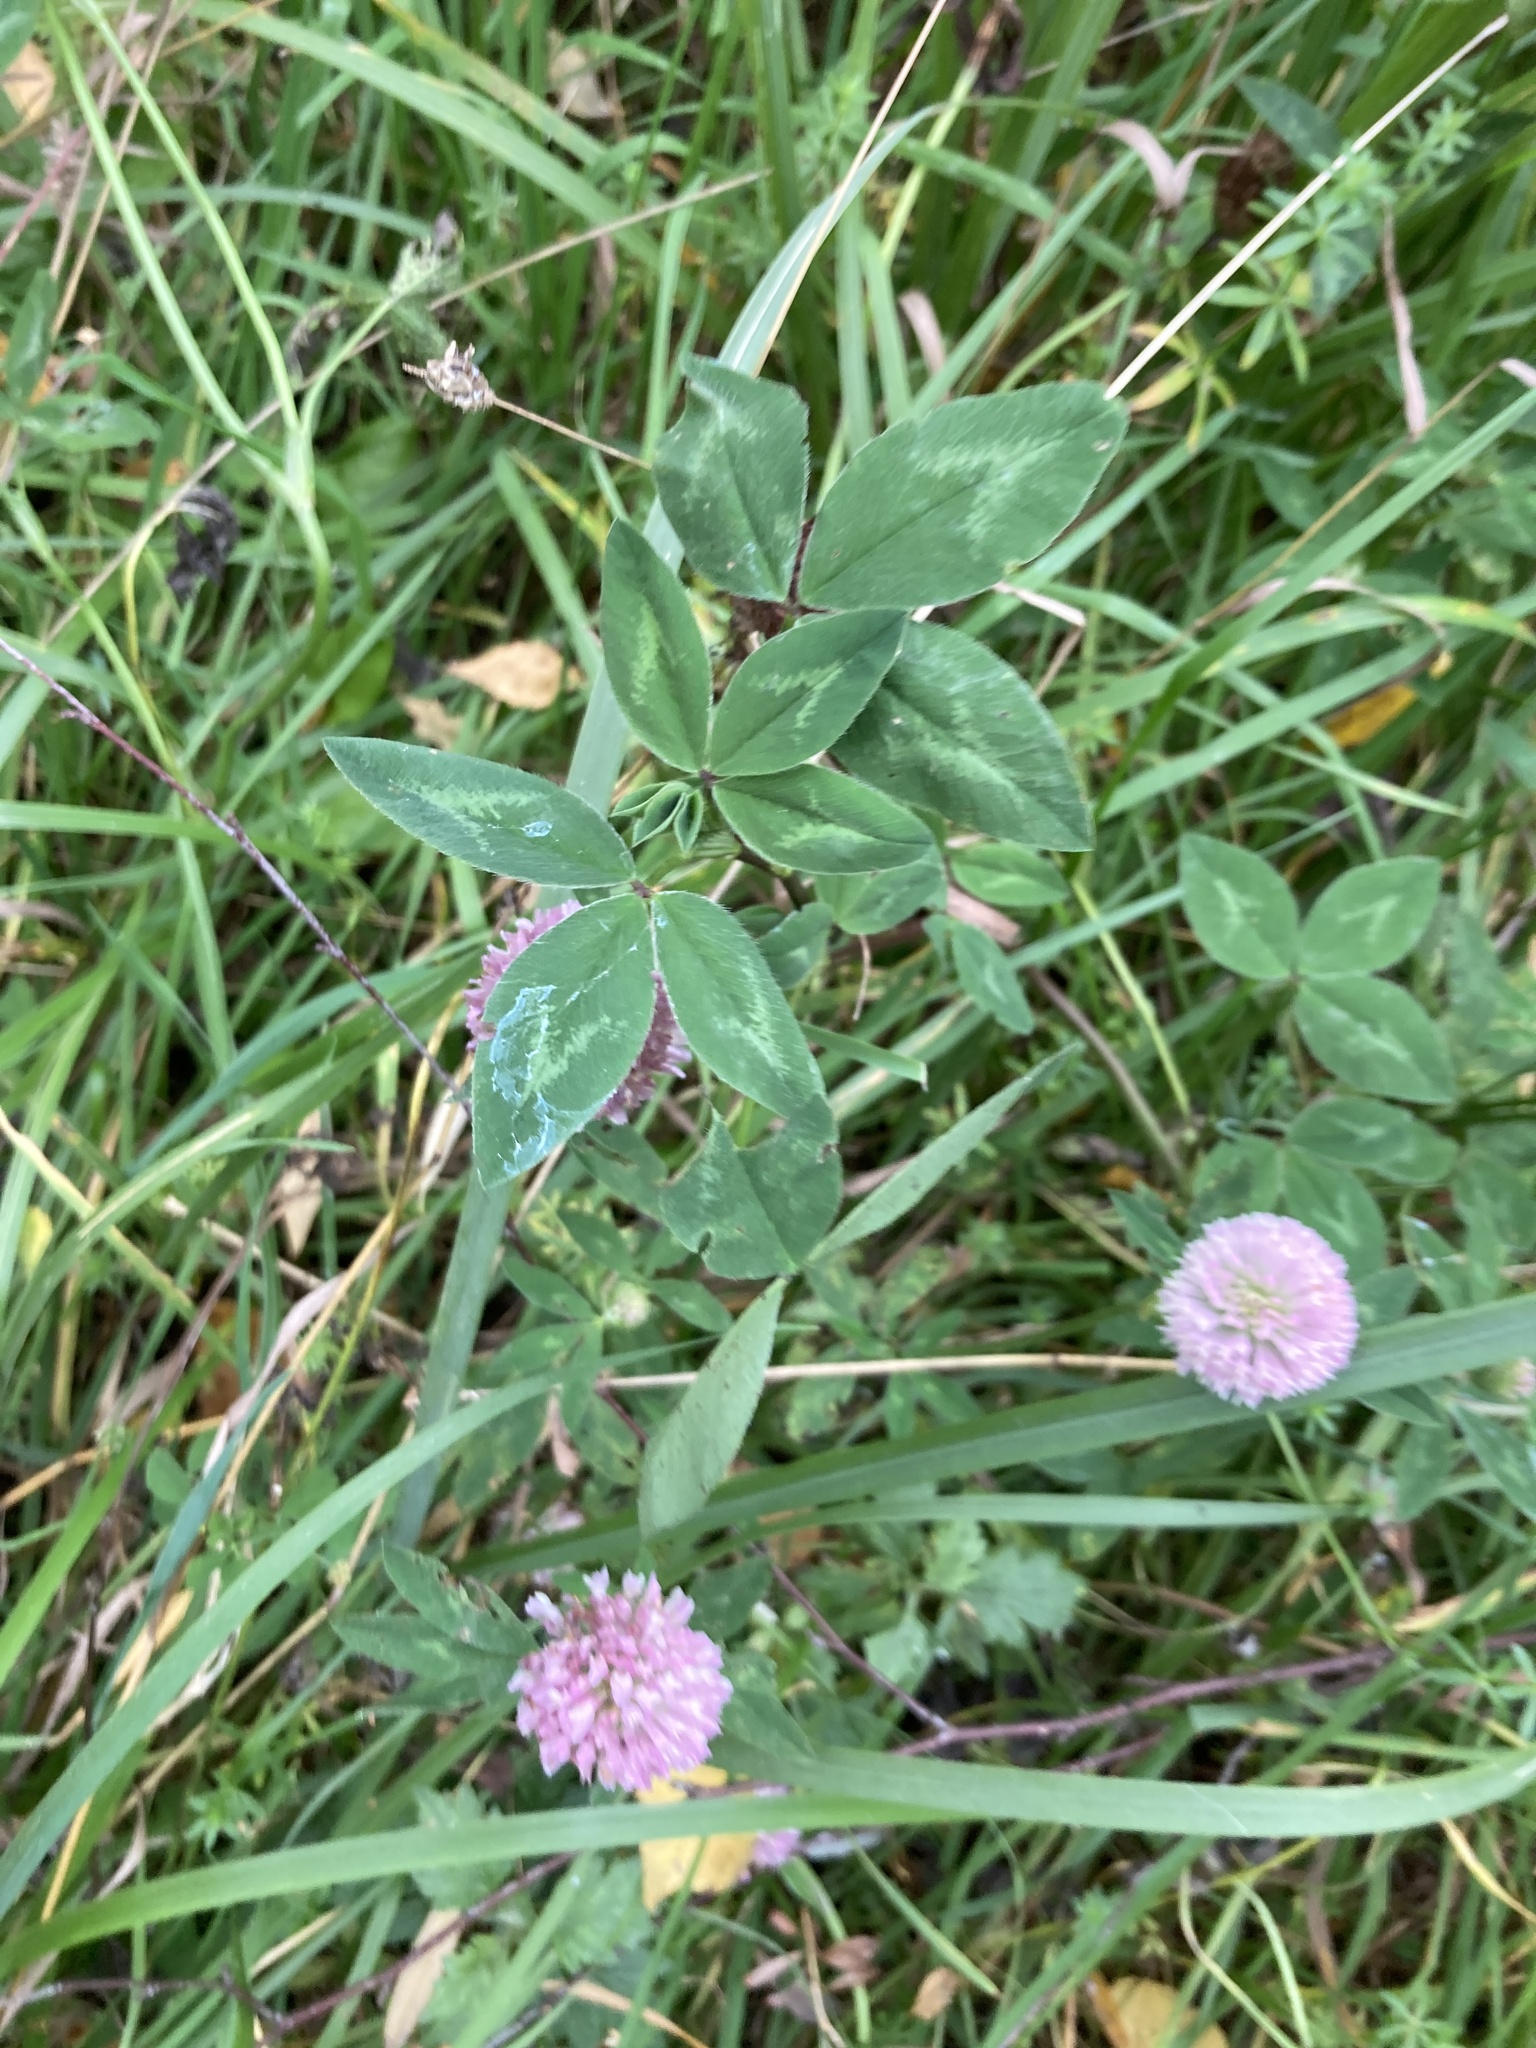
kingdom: Plantae
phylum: Tracheophyta
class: Magnoliopsida
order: Fabales
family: Fabaceae
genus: Trifolium
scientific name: Trifolium pratense
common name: Red clover
